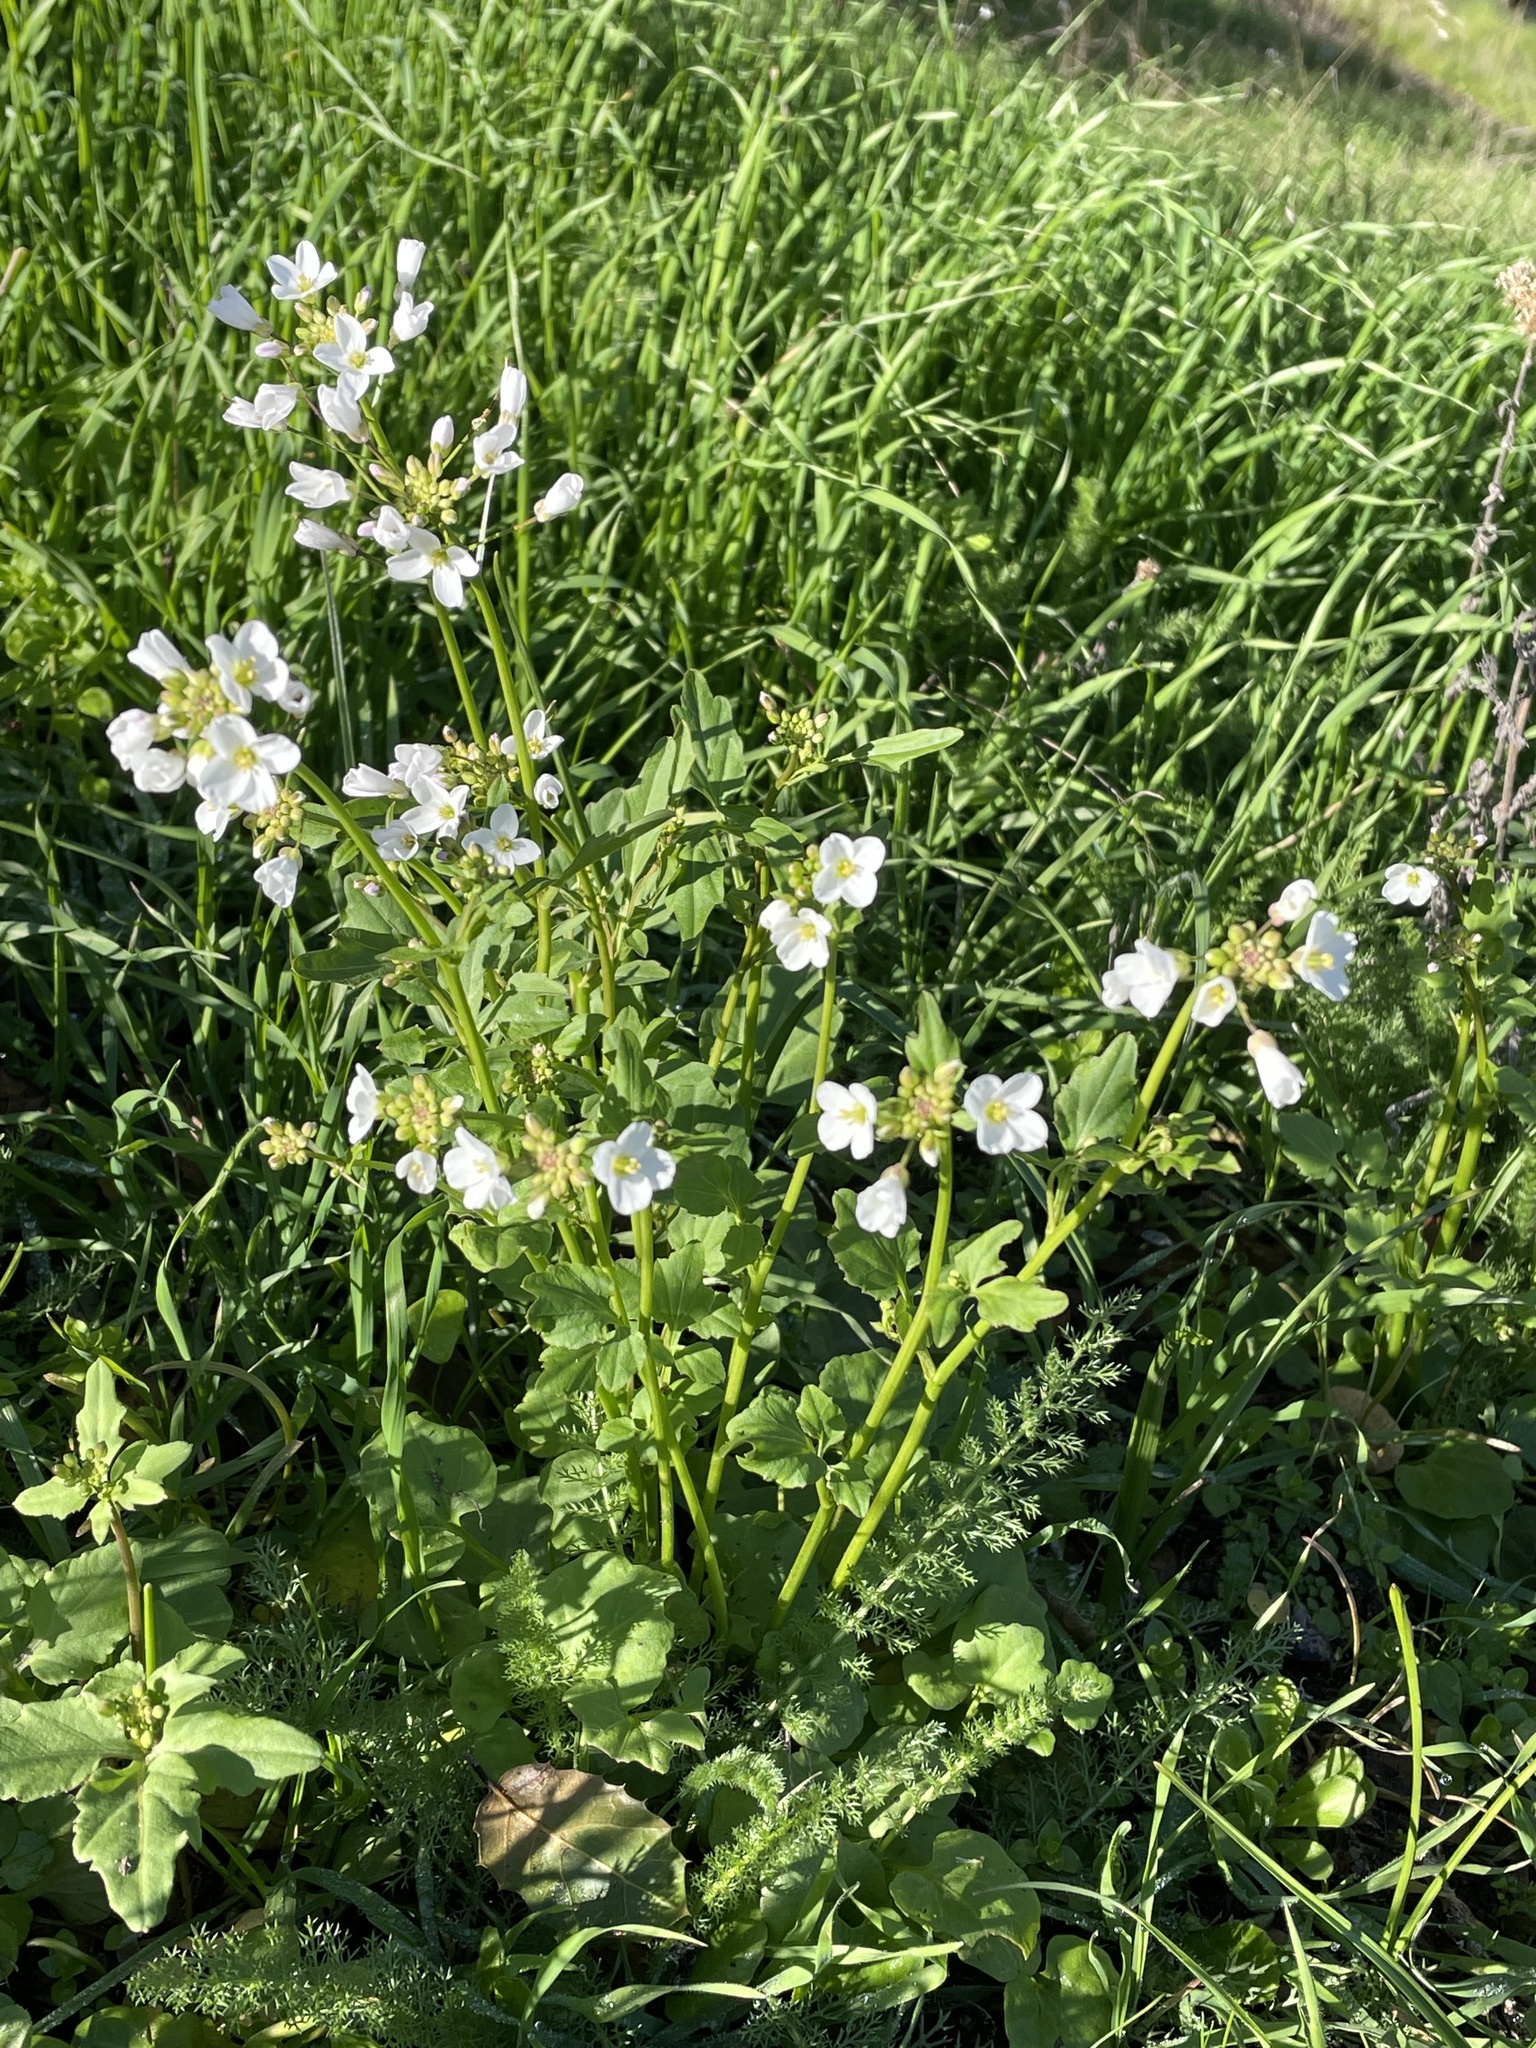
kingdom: Plantae
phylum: Tracheophyta
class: Magnoliopsida
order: Brassicales
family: Brassicaceae
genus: Cardamine
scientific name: Cardamine californica
